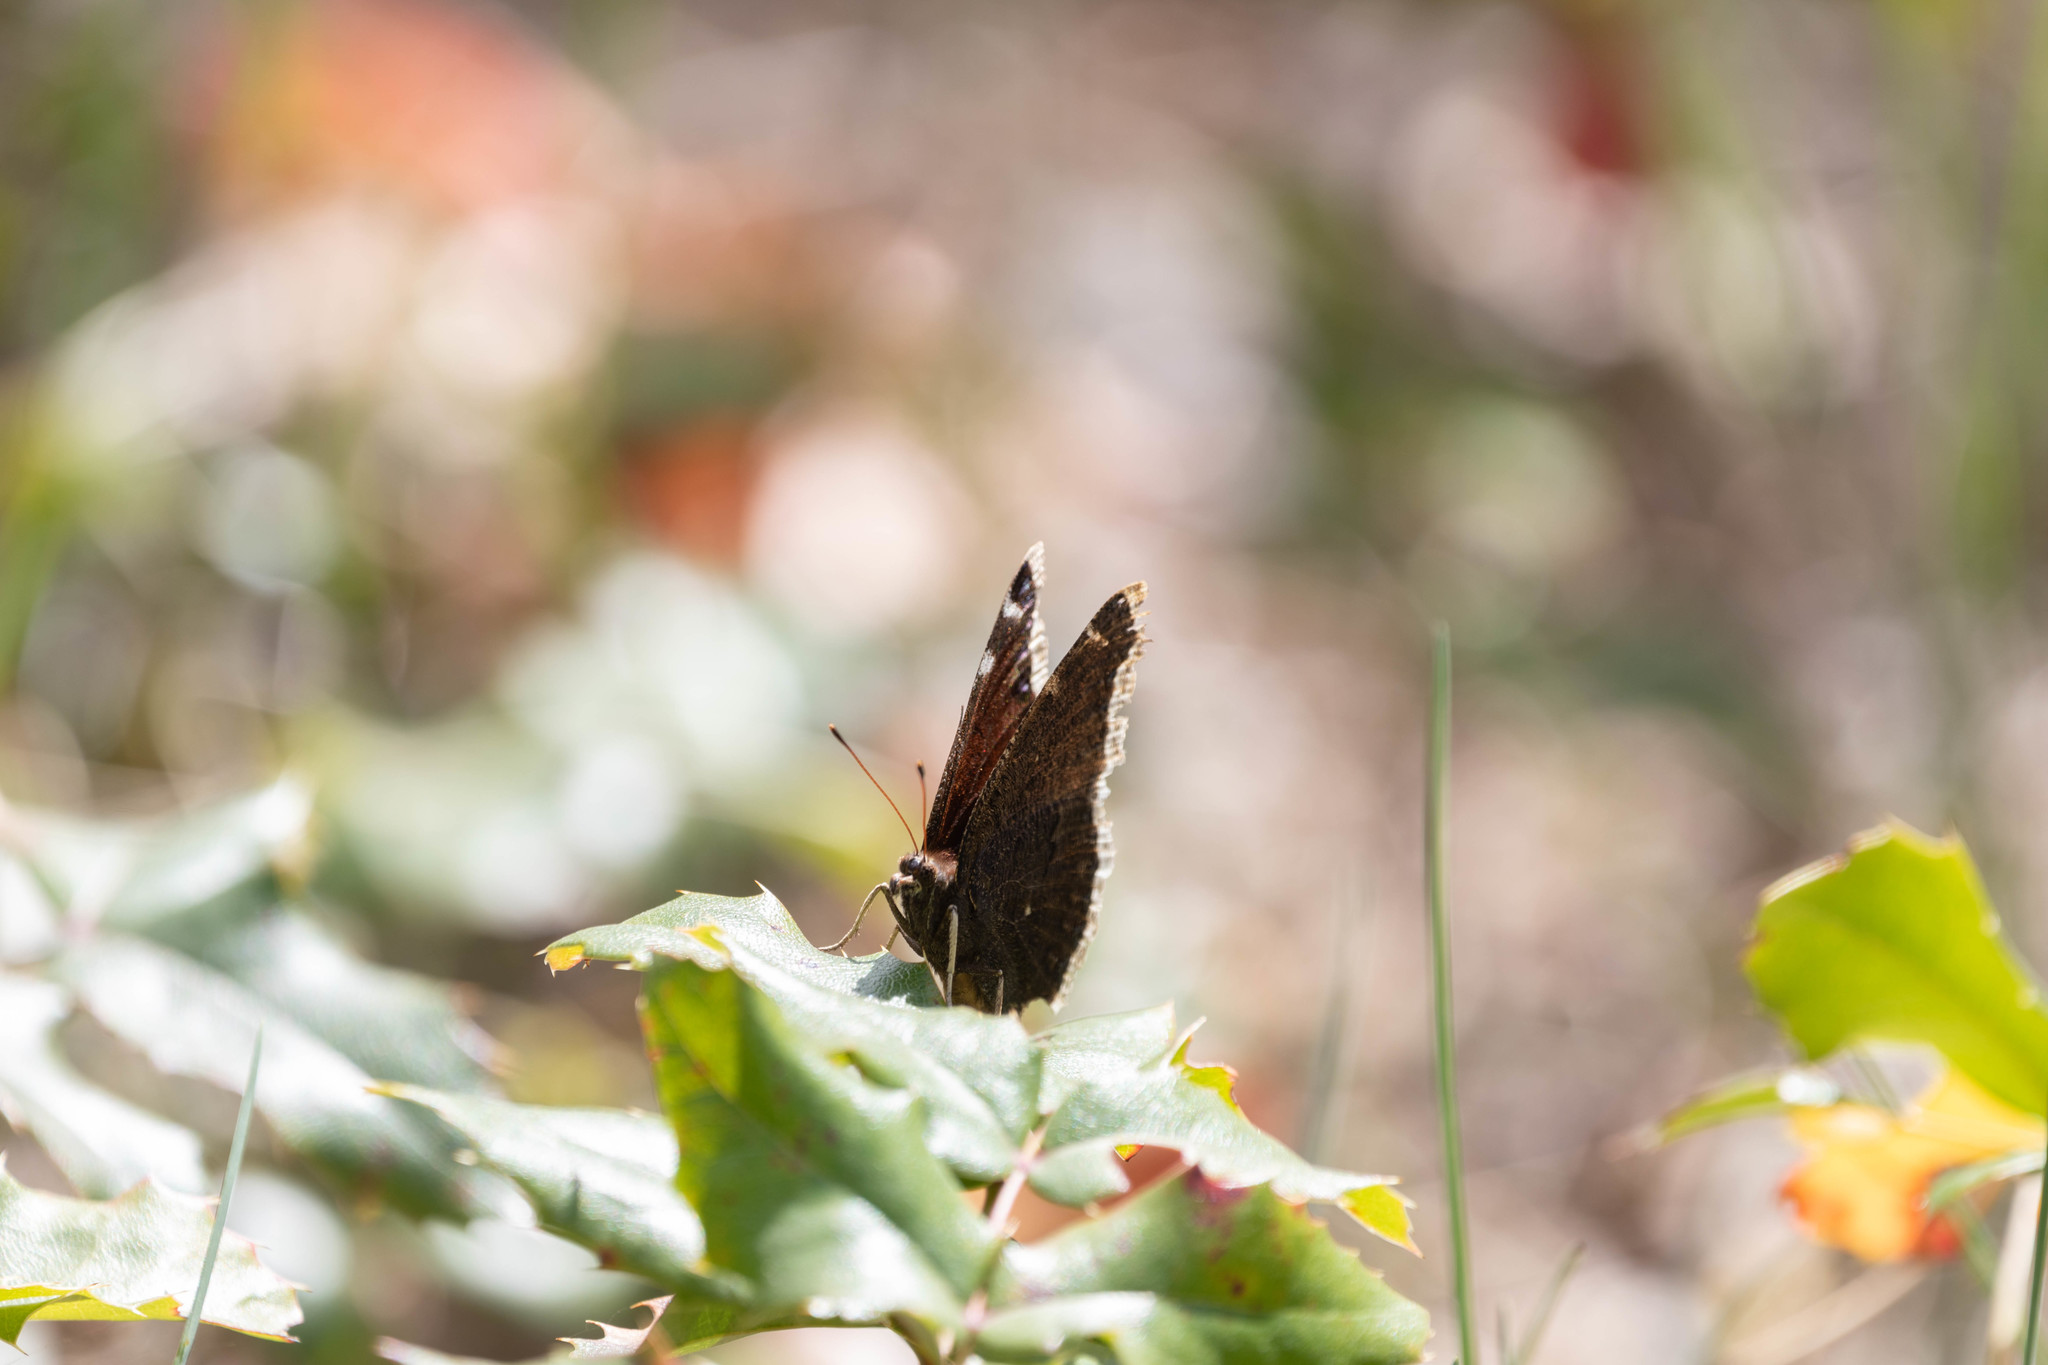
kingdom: Animalia
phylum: Arthropoda
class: Insecta
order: Lepidoptera
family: Nymphalidae
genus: Nymphalis
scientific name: Nymphalis antiopa
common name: Camberwell beauty
